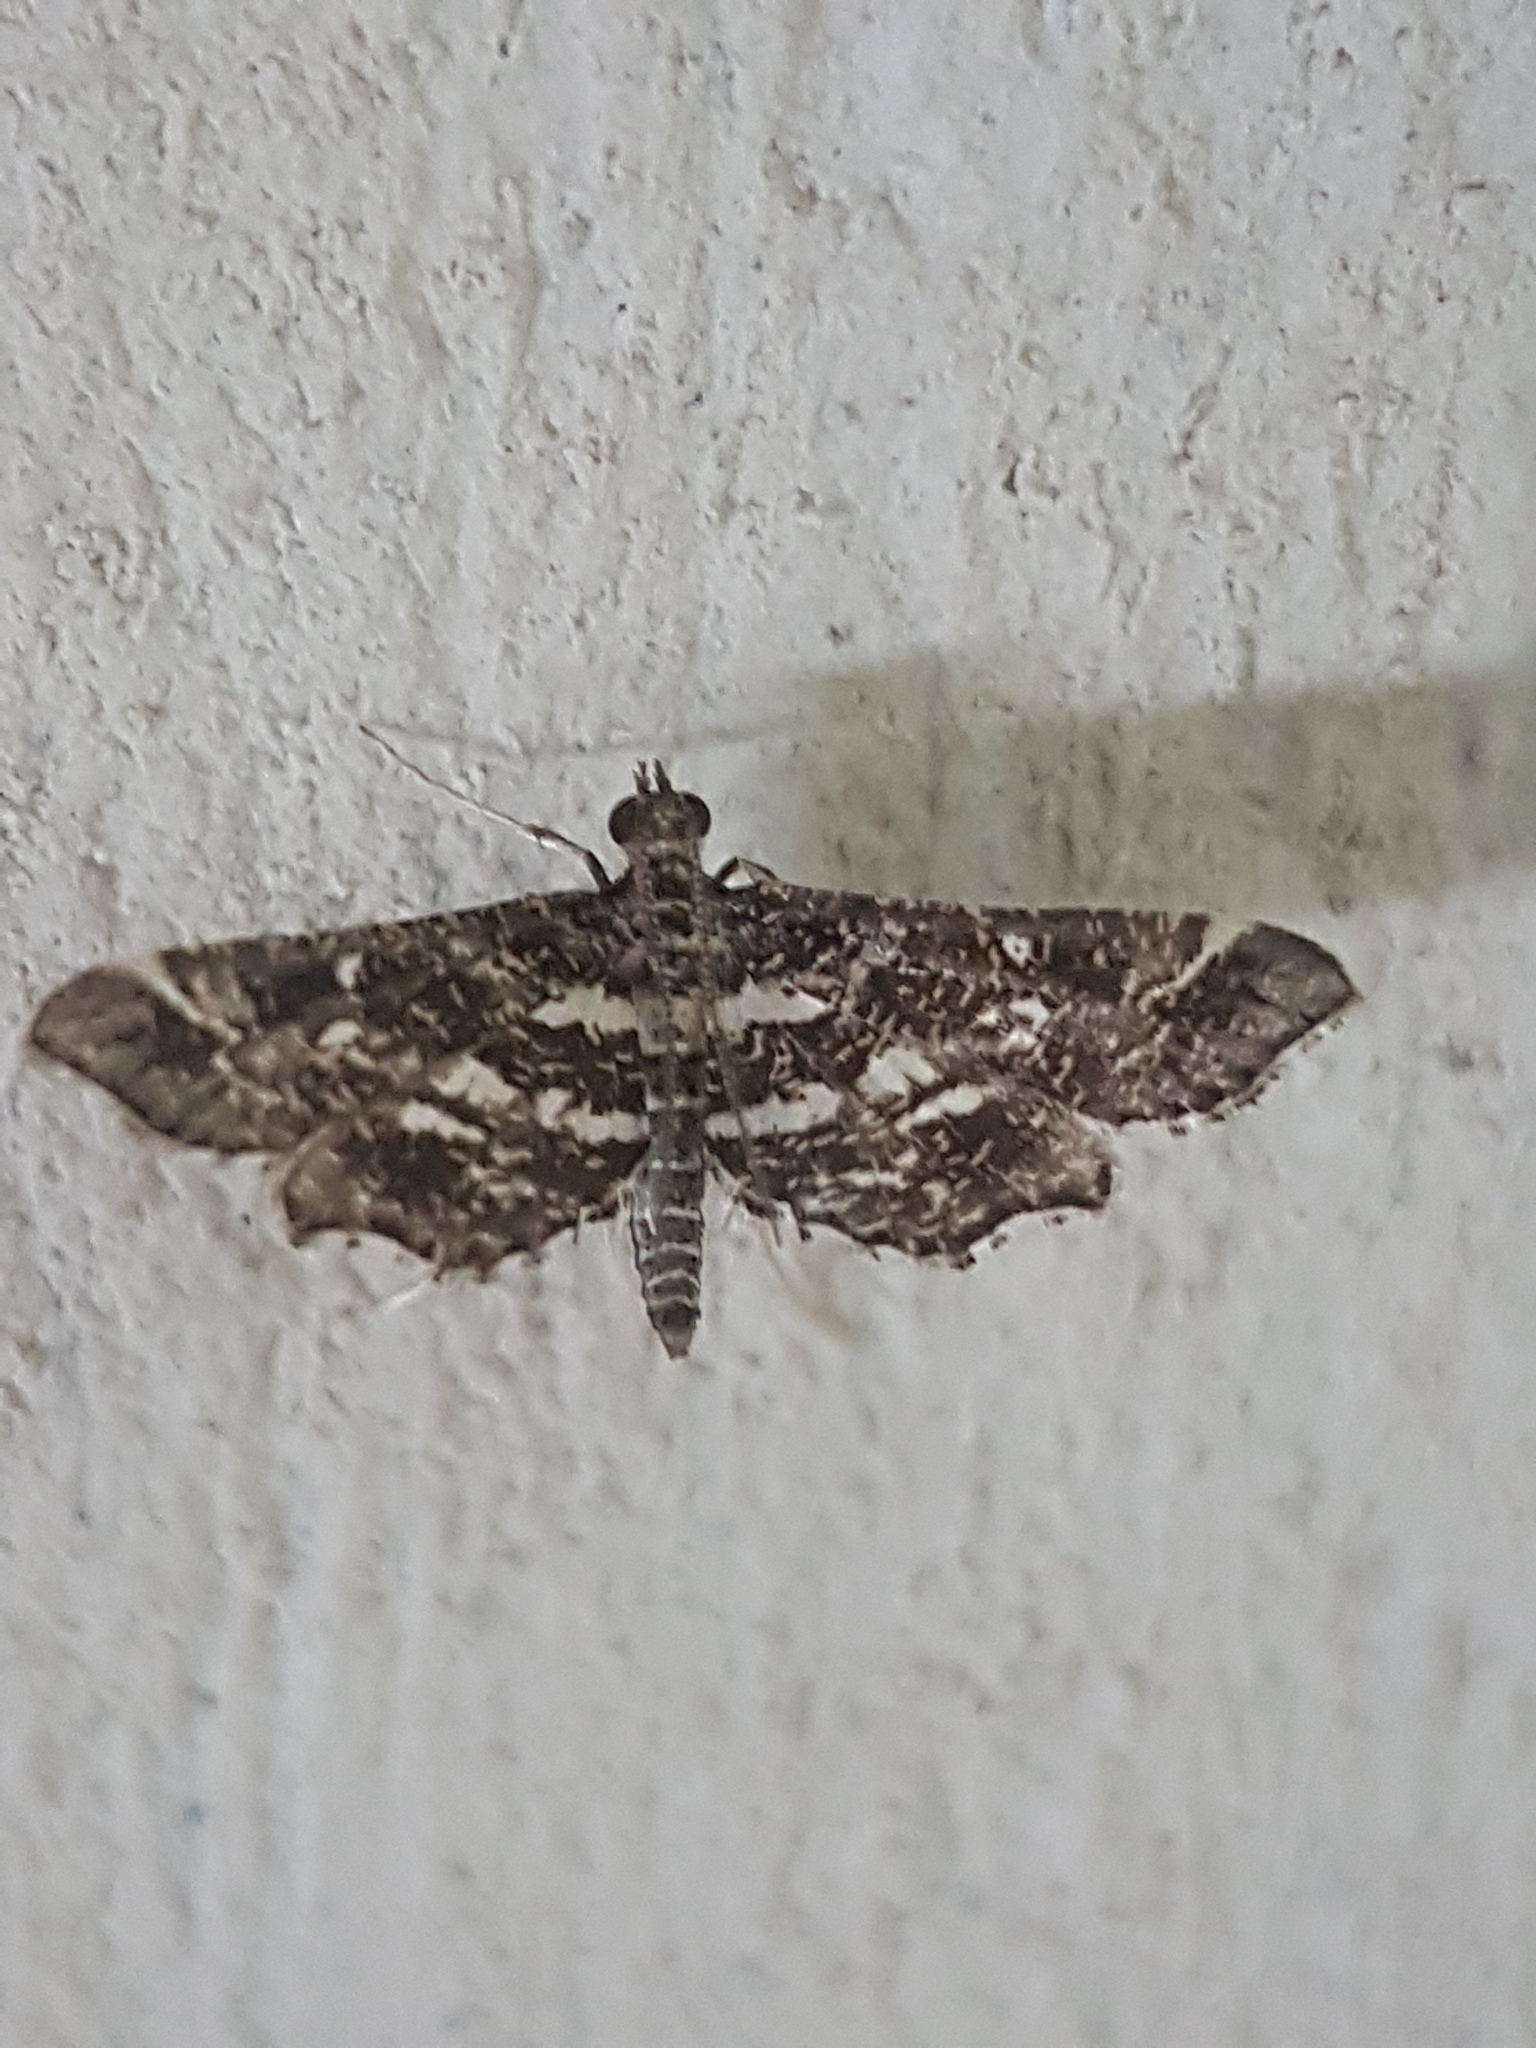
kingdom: Animalia
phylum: Arthropoda
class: Insecta
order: Lepidoptera
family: Crambidae
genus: Diasemiopsis
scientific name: Diasemiopsis ramburialis
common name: Vagrant china-mark
